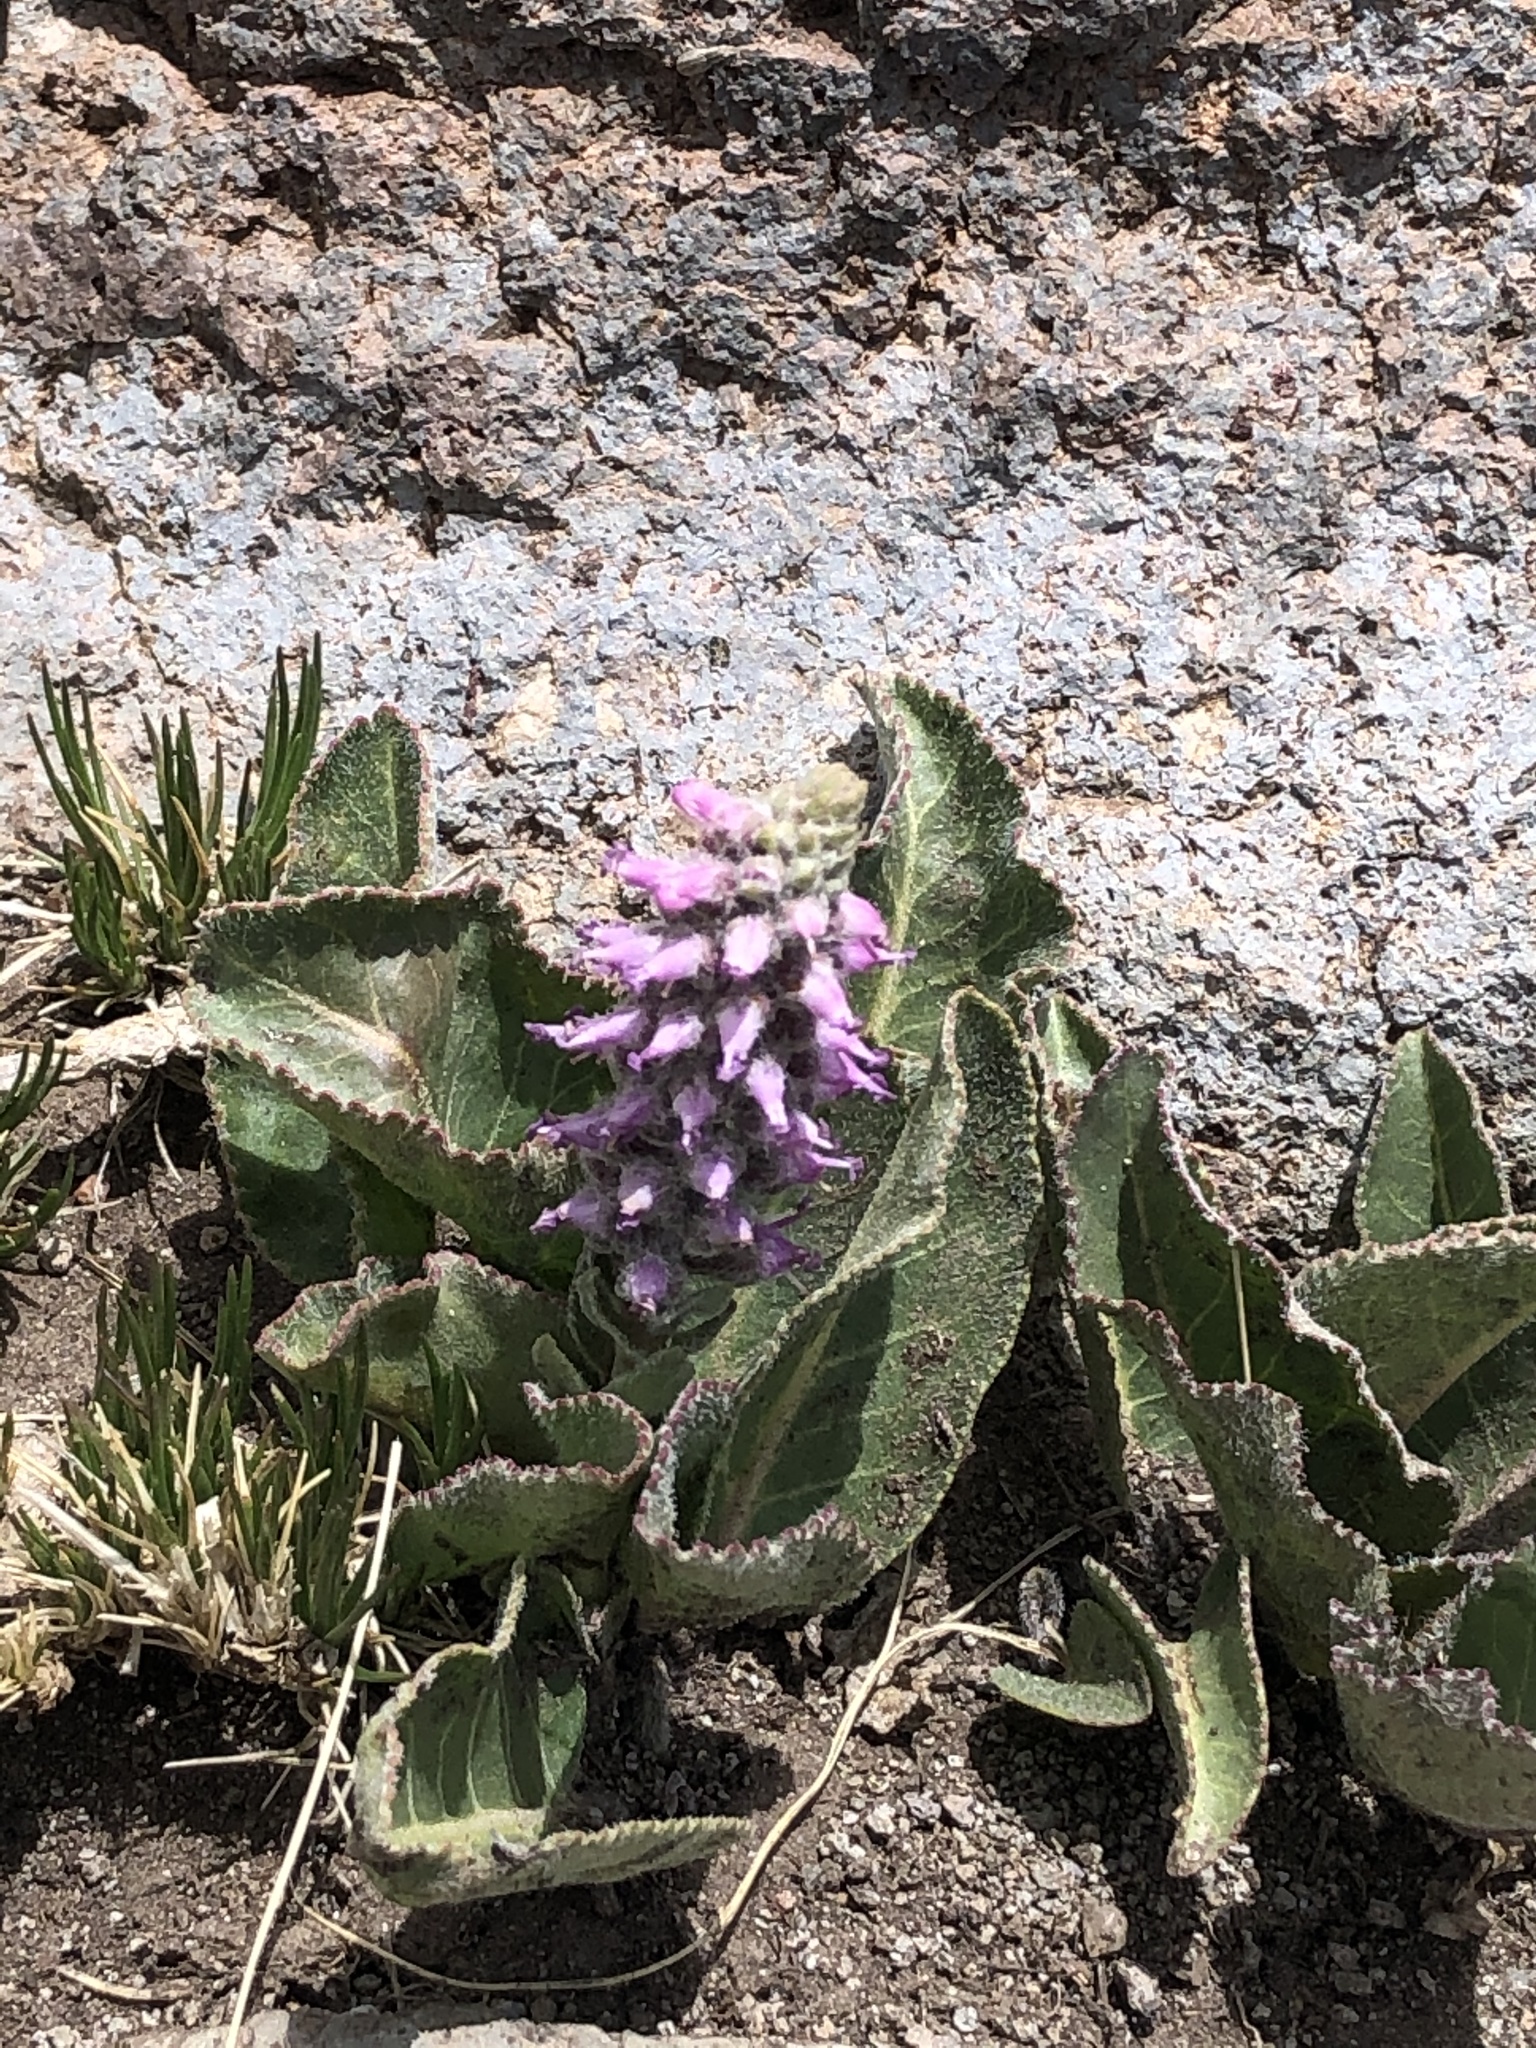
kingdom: Plantae
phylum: Tracheophyta
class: Magnoliopsida
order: Lamiales
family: Plantaginaceae
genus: Veronica
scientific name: Veronica plantaginea
